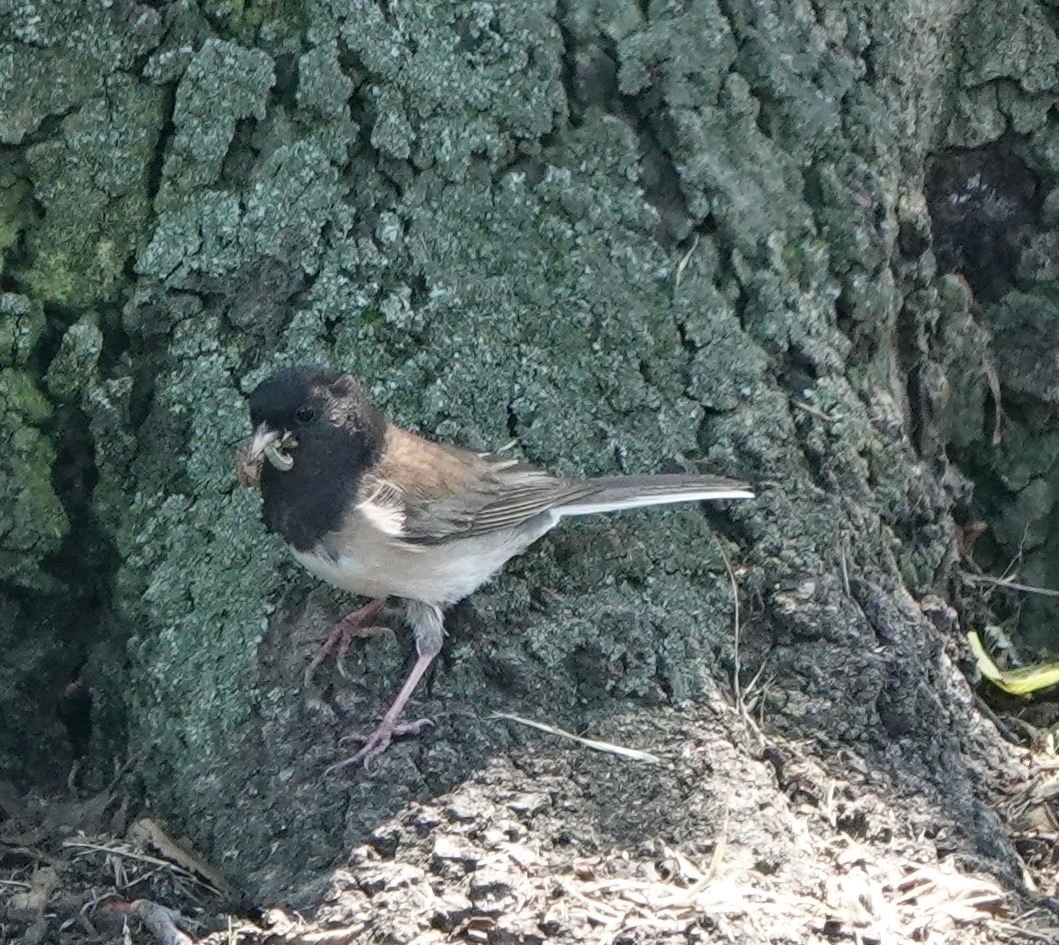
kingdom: Animalia
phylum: Chordata
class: Aves
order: Passeriformes
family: Passerellidae
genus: Junco
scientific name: Junco hyemalis
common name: Dark-eyed junco
